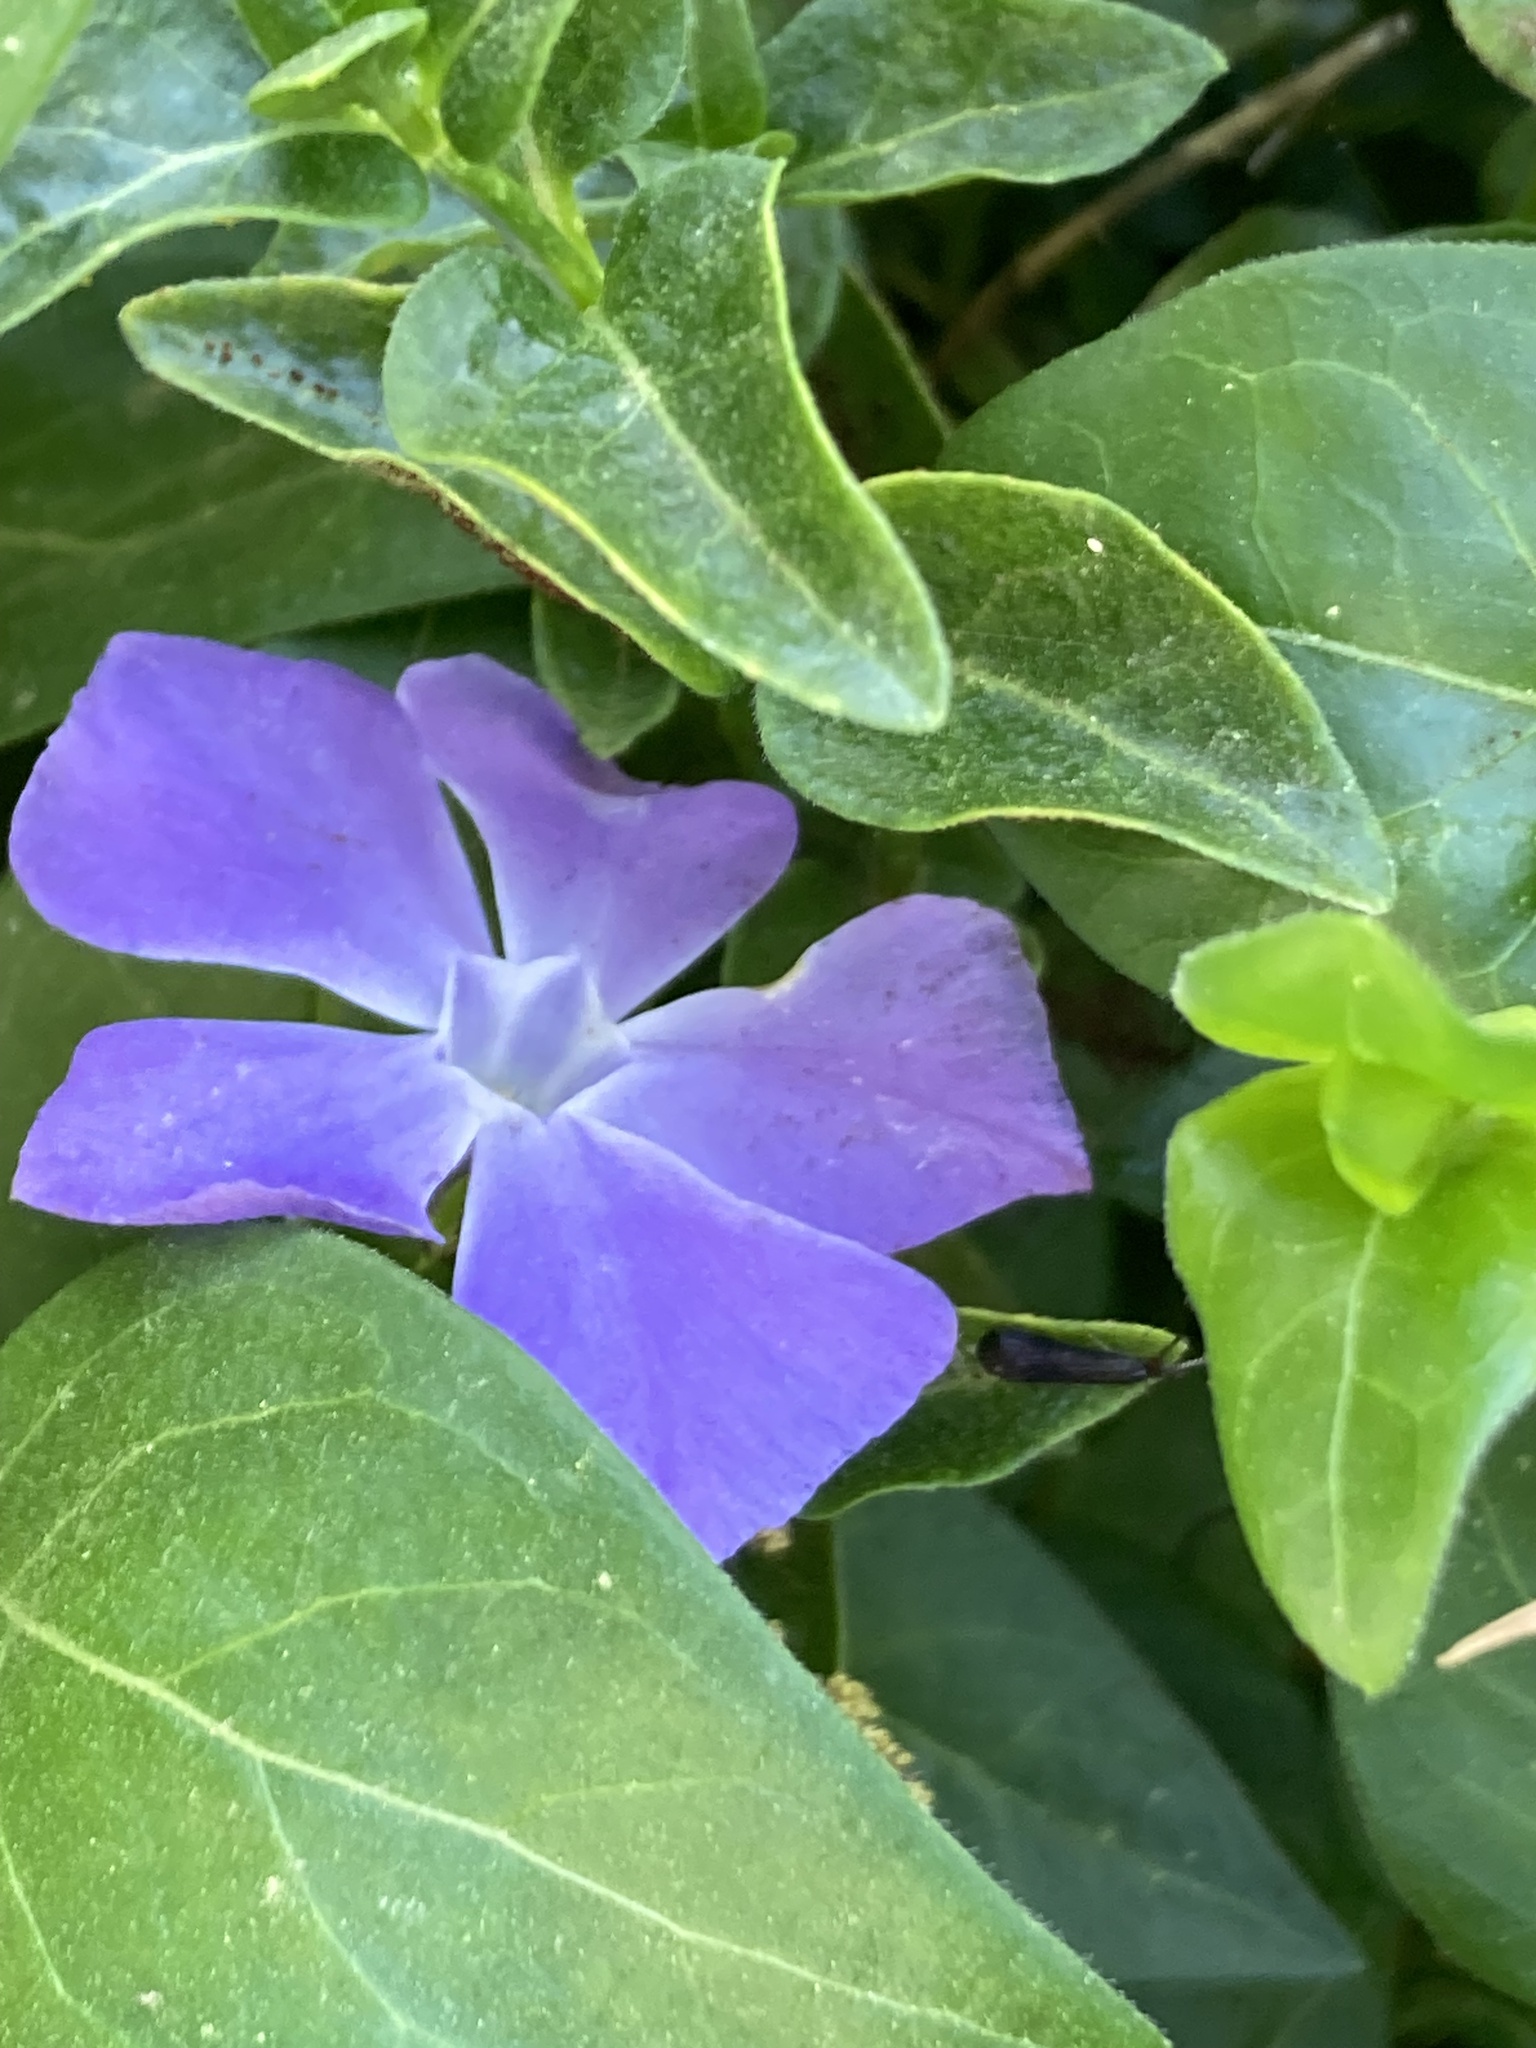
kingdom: Plantae
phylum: Tracheophyta
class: Magnoliopsida
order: Gentianales
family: Apocynaceae
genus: Vinca
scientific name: Vinca major
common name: Greater periwinkle
